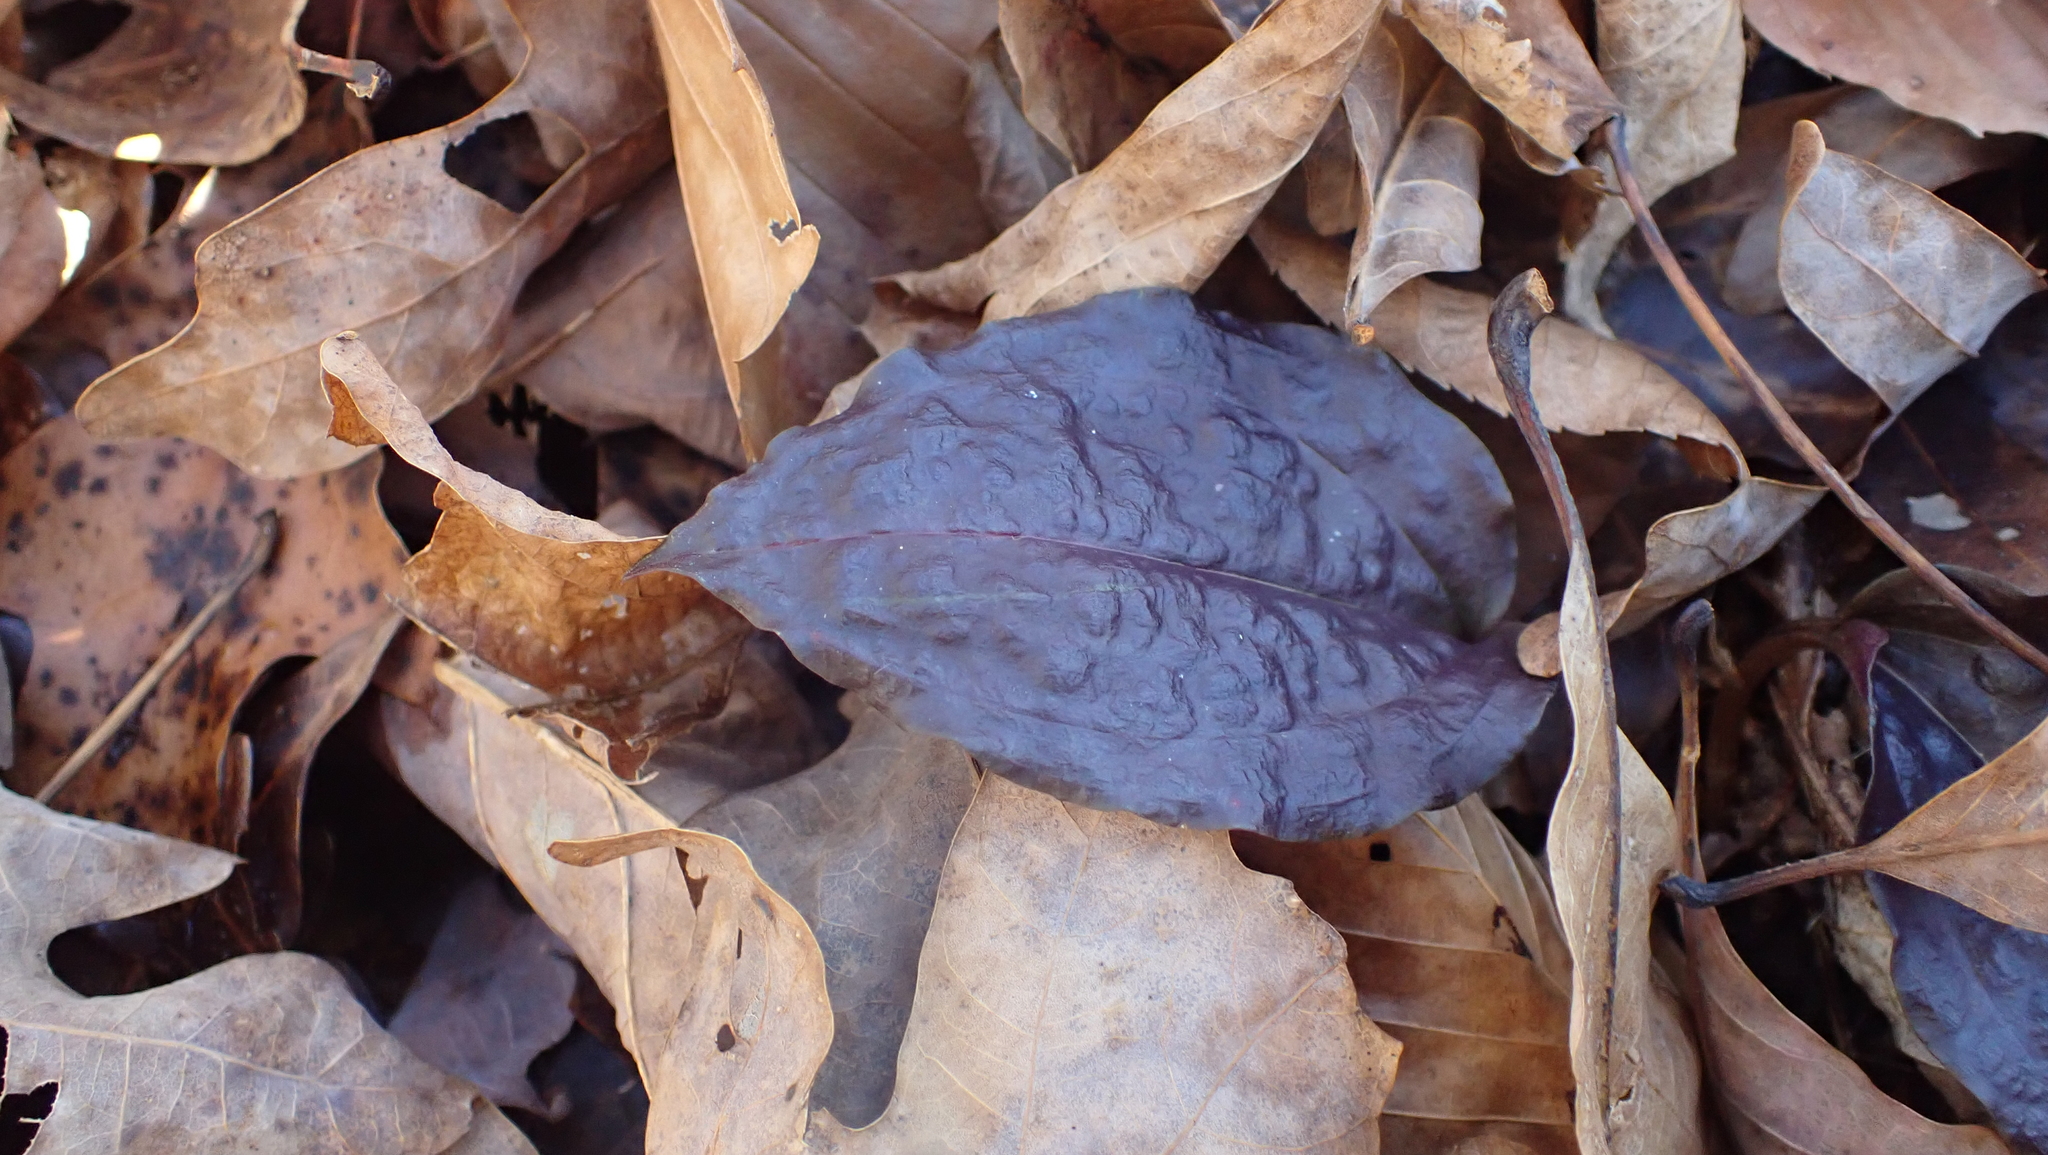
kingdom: Plantae
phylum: Tracheophyta
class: Liliopsida
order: Asparagales
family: Orchidaceae
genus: Tipularia
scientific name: Tipularia discolor
